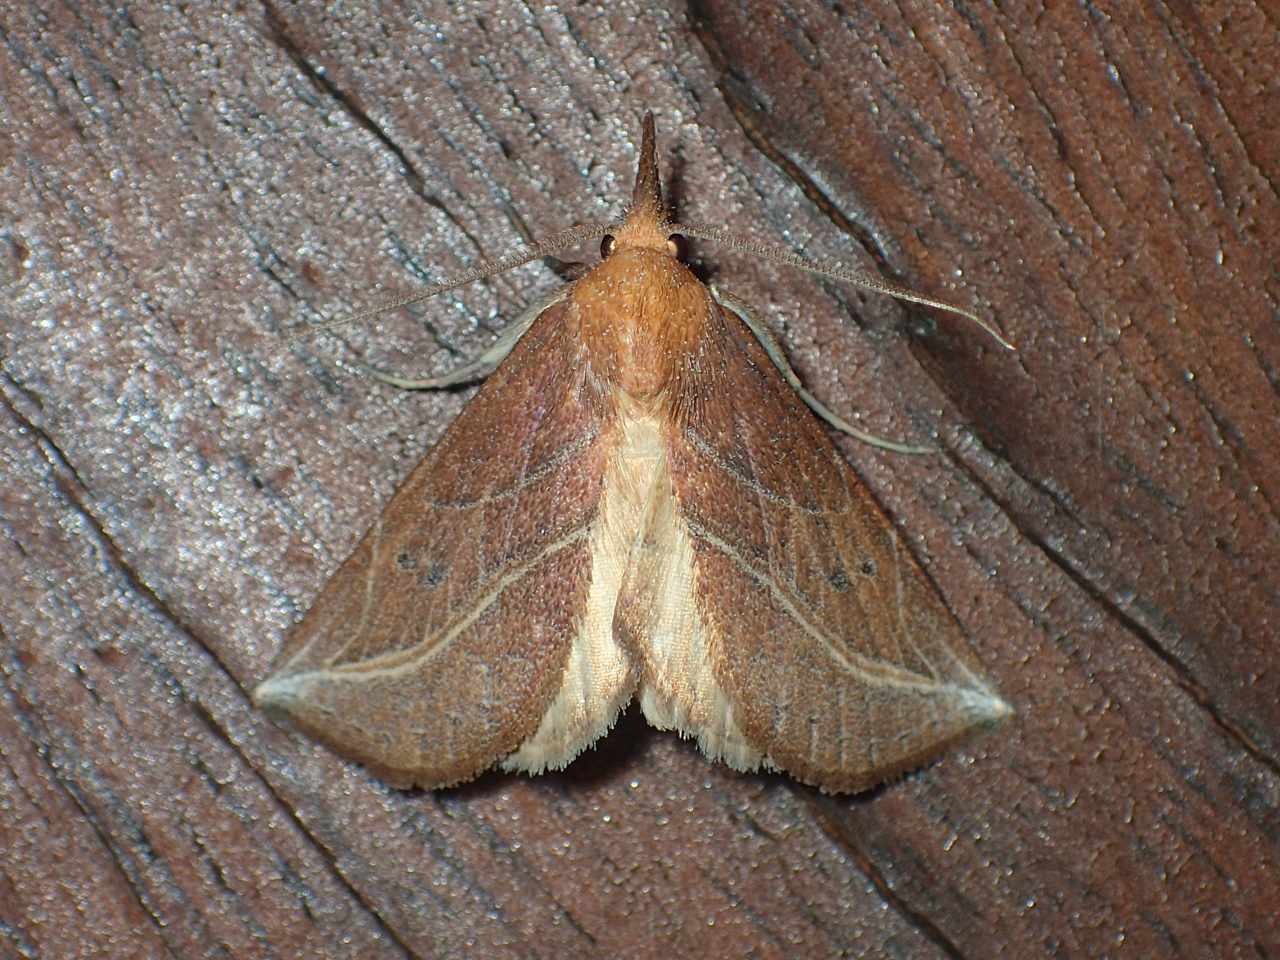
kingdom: Animalia
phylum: Arthropoda
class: Insecta
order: Lepidoptera
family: Erebidae
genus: Phyprosopus
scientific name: Phyprosopus callitrichoides
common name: Curved-lined owlet
